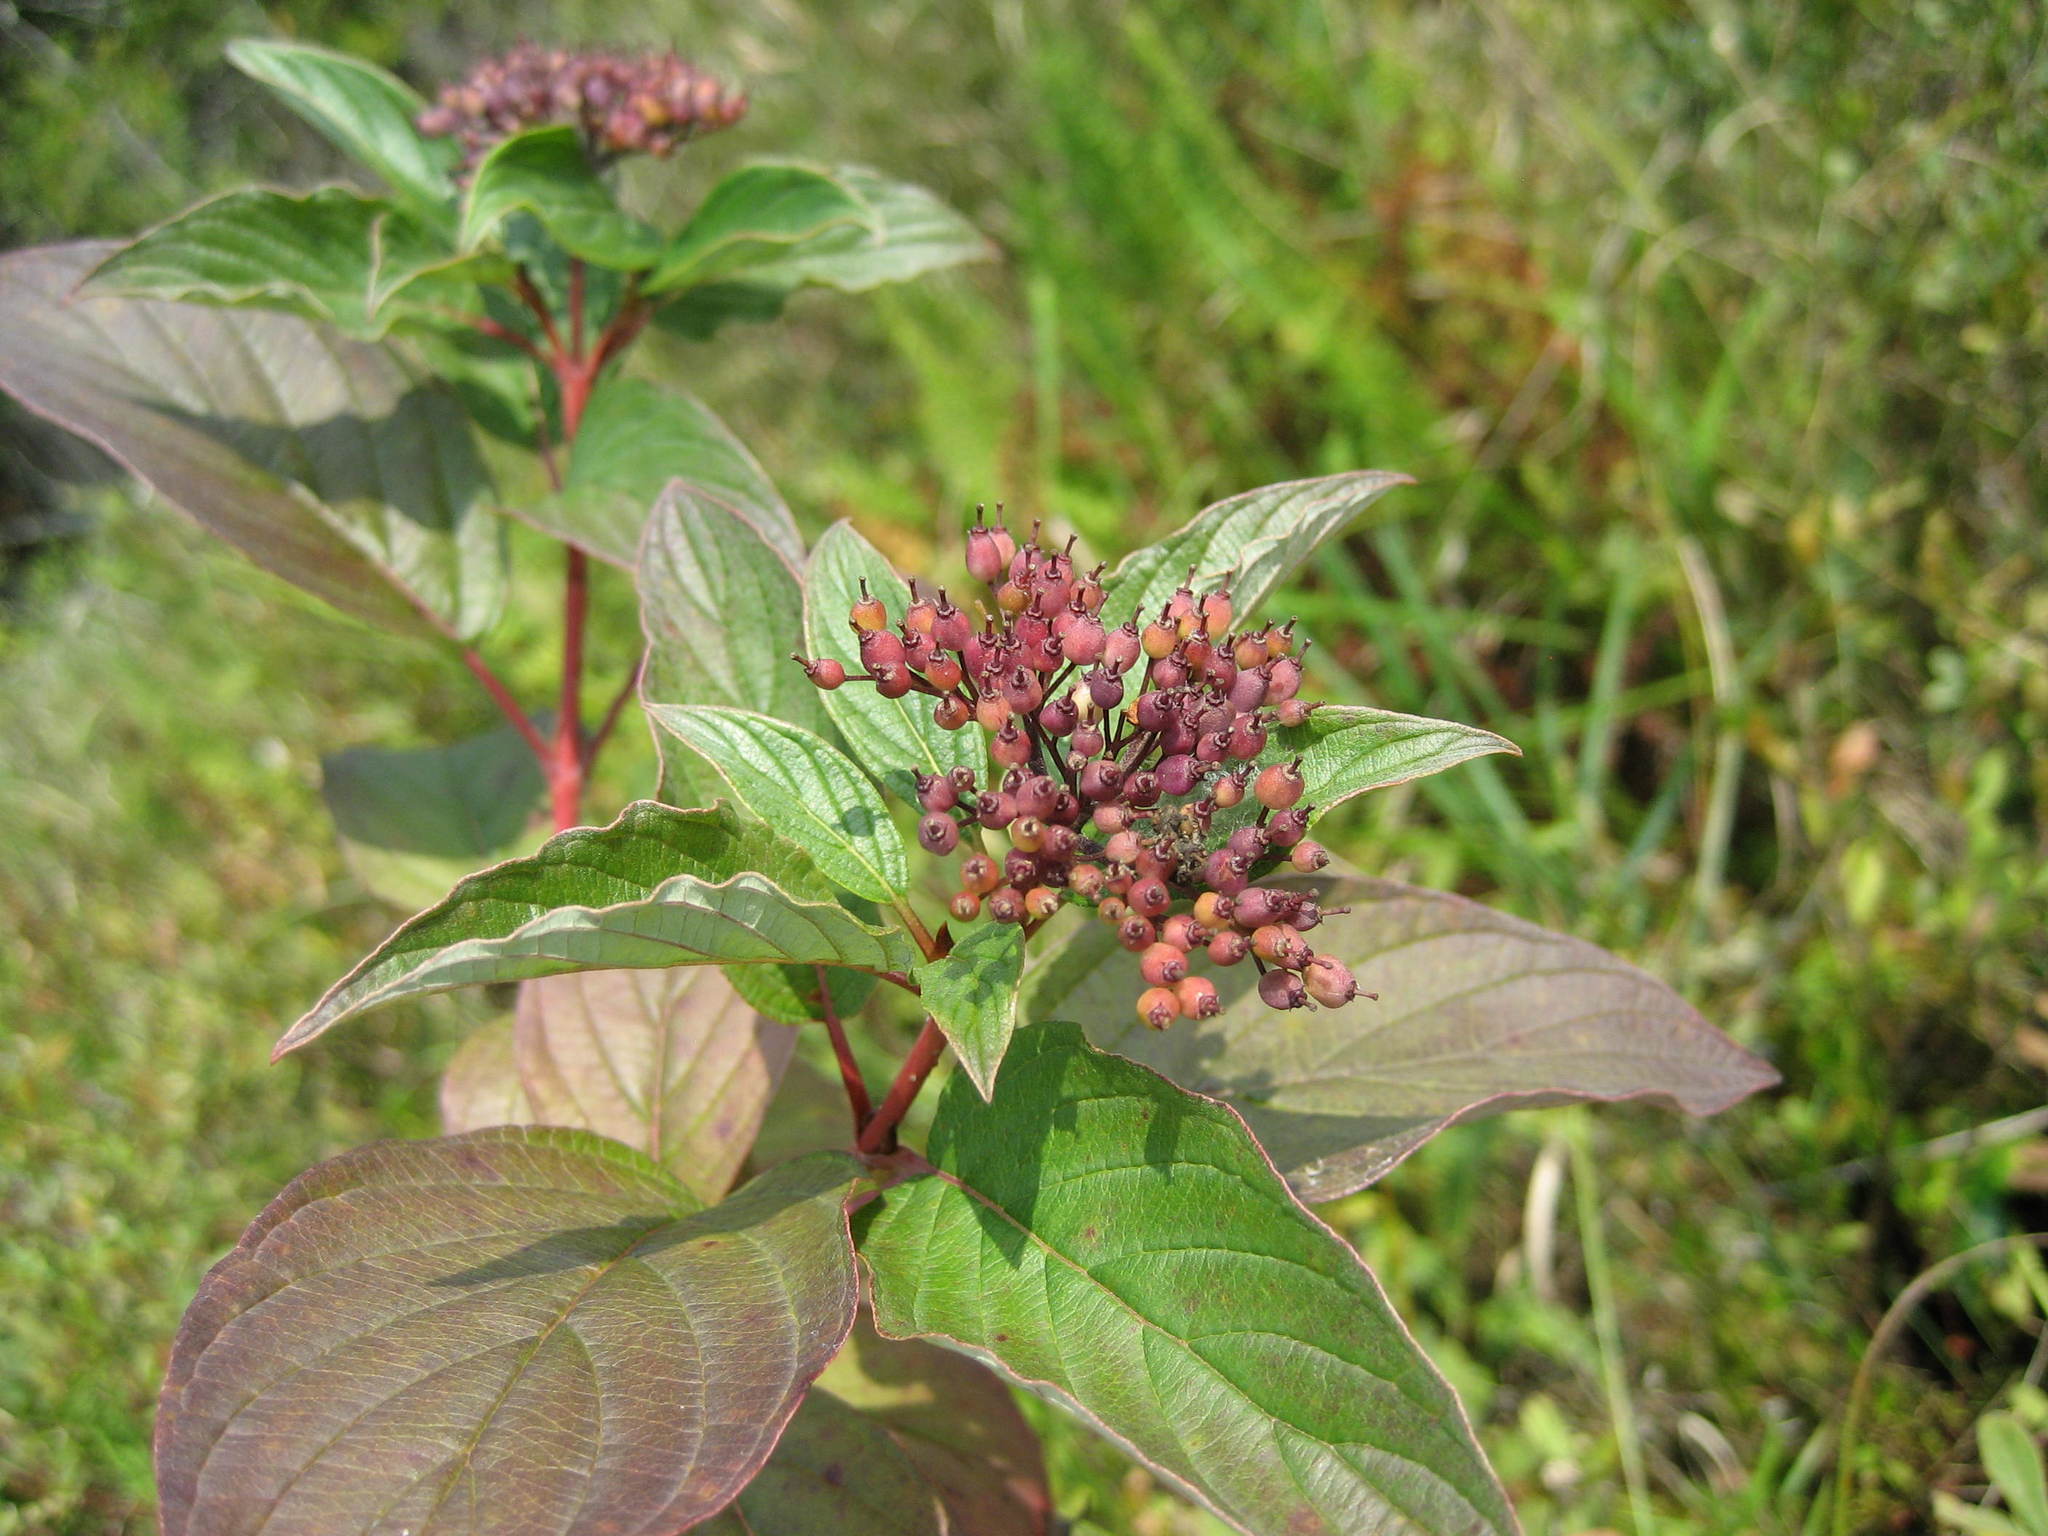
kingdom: Plantae
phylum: Tracheophyta
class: Magnoliopsida
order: Cornales
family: Cornaceae
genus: Cornus
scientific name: Cornus sericea
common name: Red-osier dogwood
